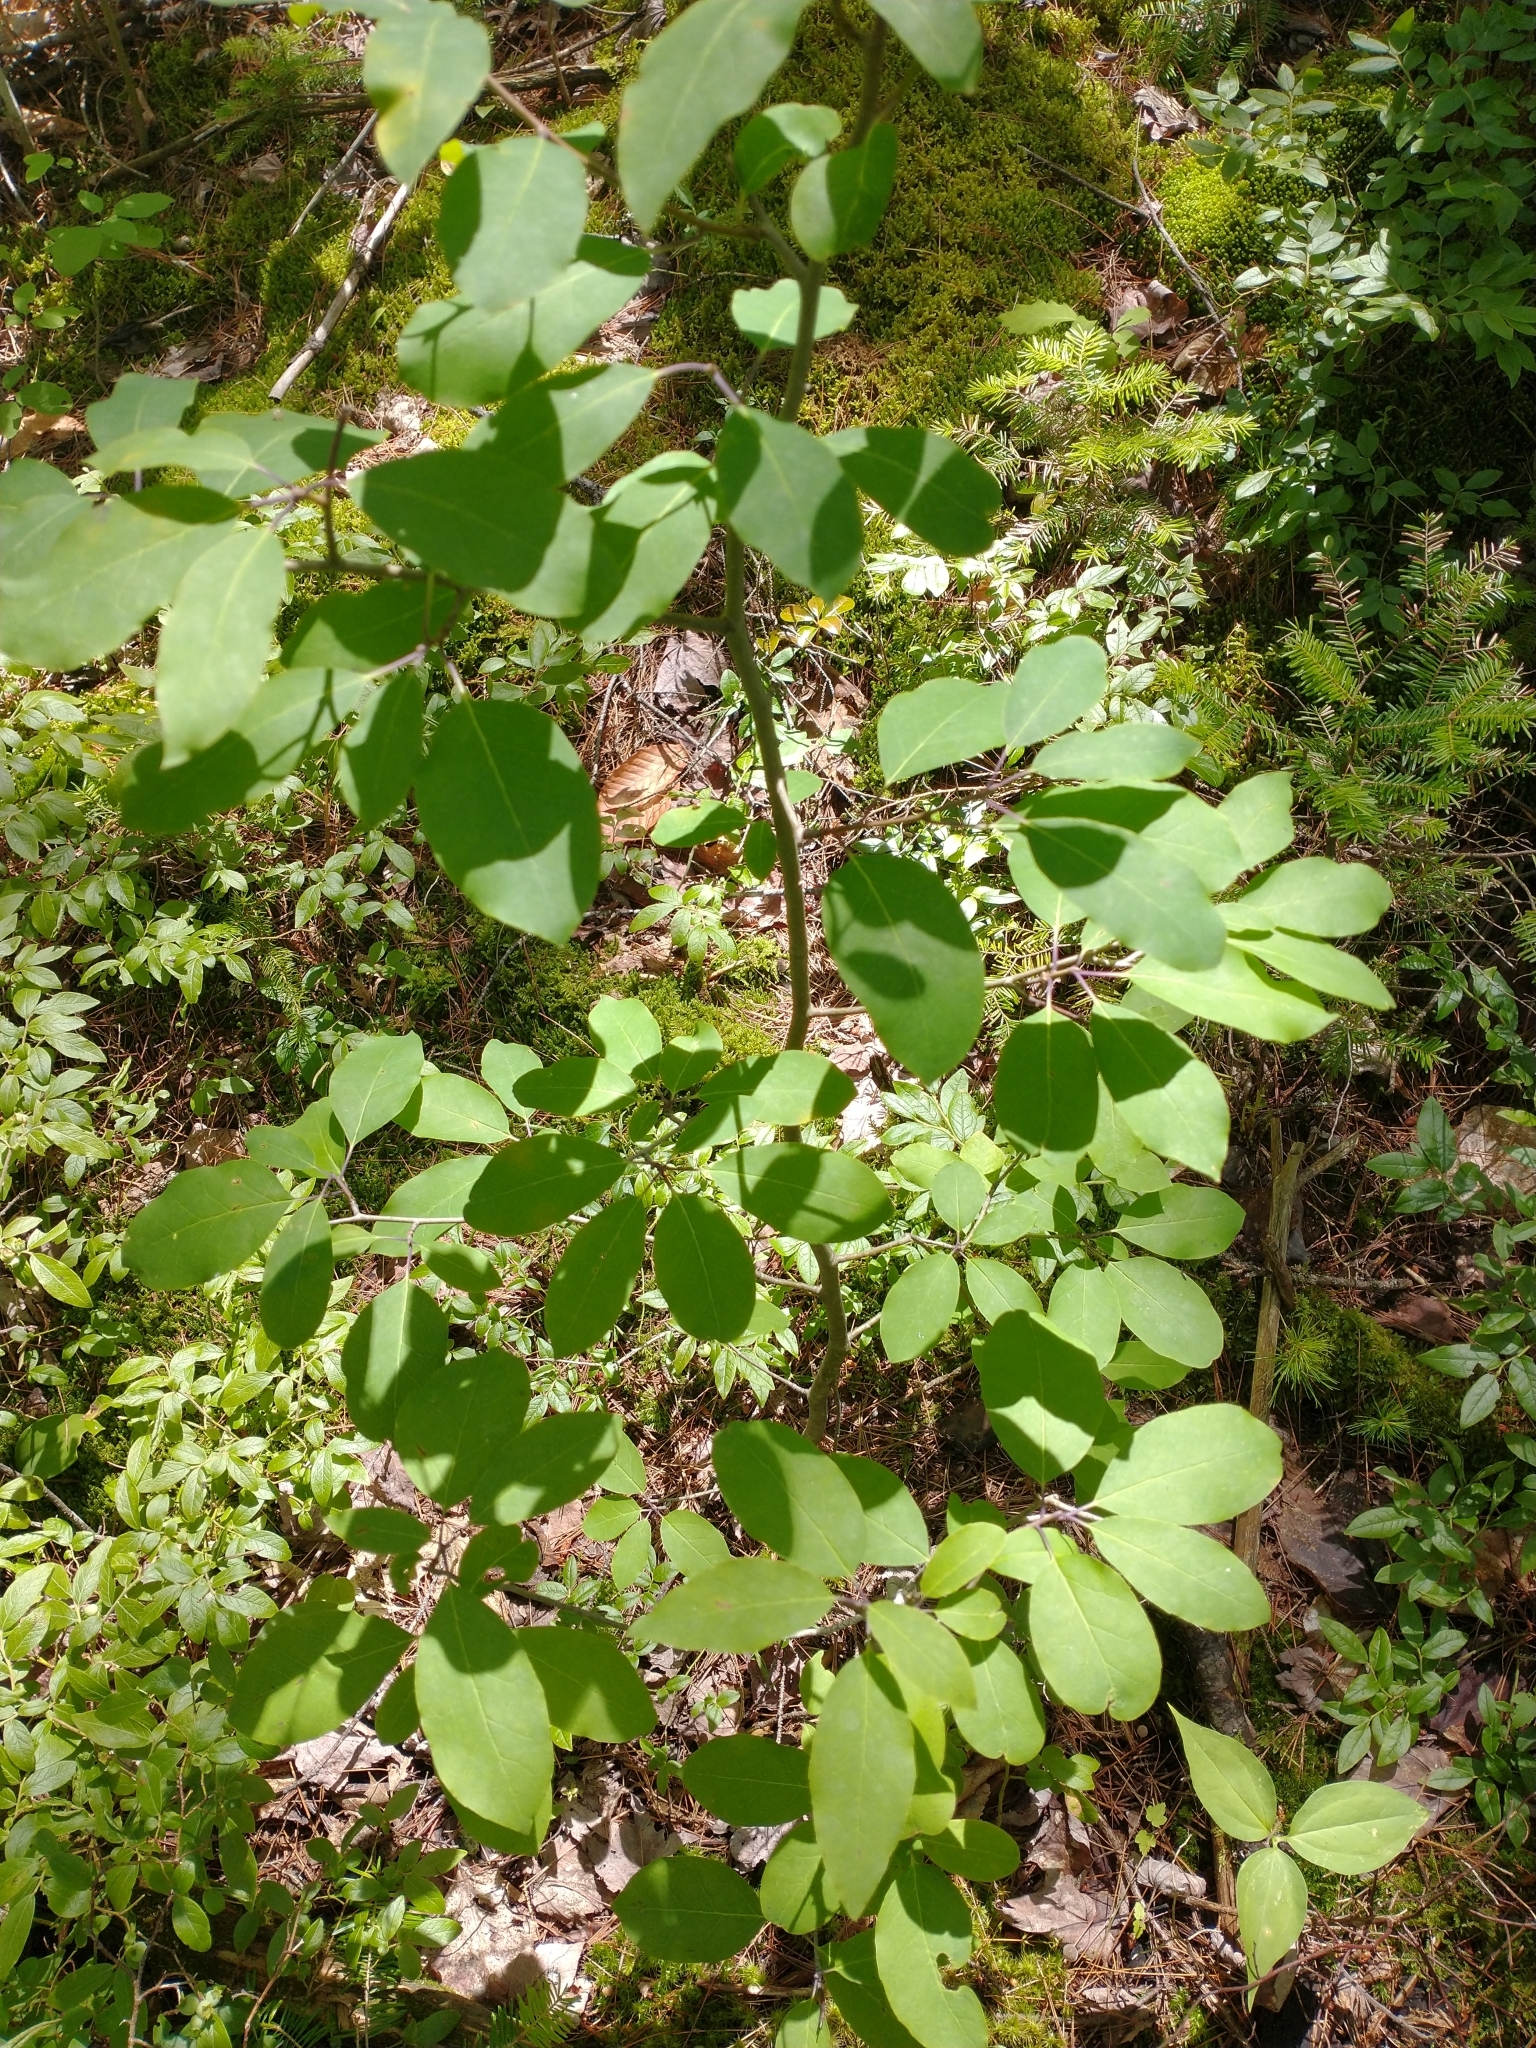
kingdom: Plantae
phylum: Tracheophyta
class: Magnoliopsida
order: Aquifoliales
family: Aquifoliaceae
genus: Ilex
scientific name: Ilex mucronata
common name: Catberry
